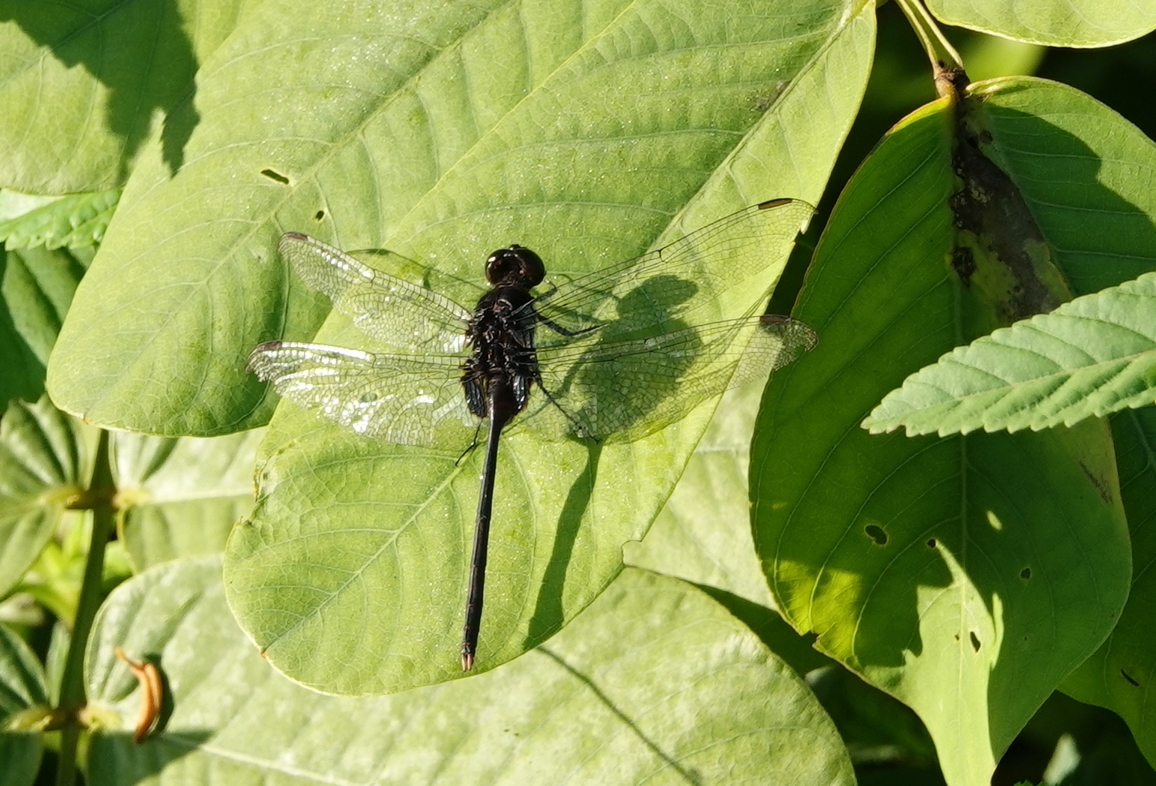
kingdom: Animalia
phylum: Arthropoda
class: Insecta
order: Odonata
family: Libellulidae
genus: Erythemis
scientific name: Erythemis plebeja
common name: Pin-tailed pondhawk
